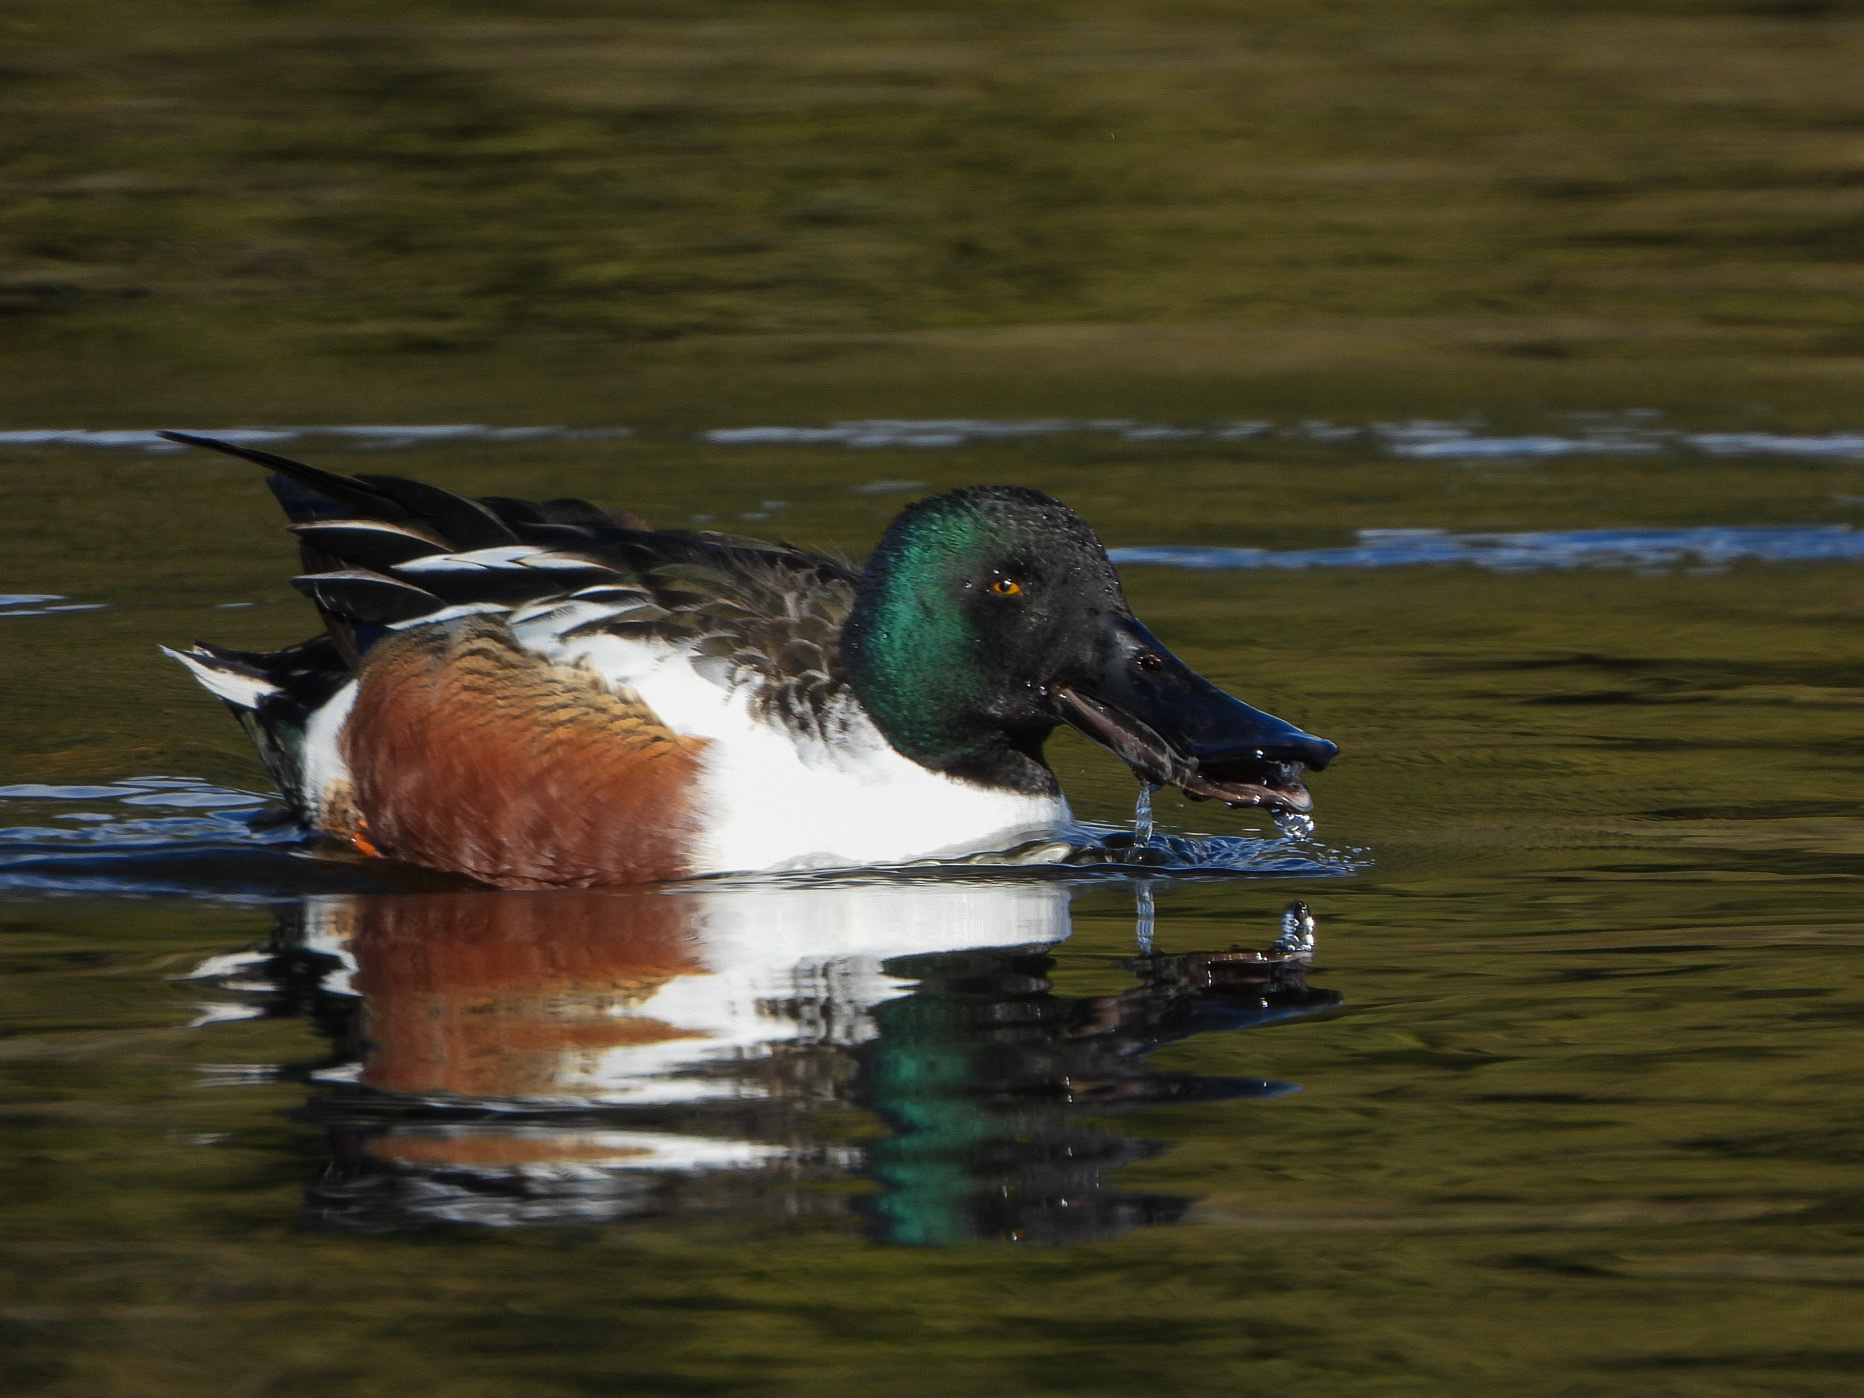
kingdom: Animalia
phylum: Chordata
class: Aves
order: Anseriformes
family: Anatidae
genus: Spatula
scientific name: Spatula clypeata
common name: Northern shoveler
